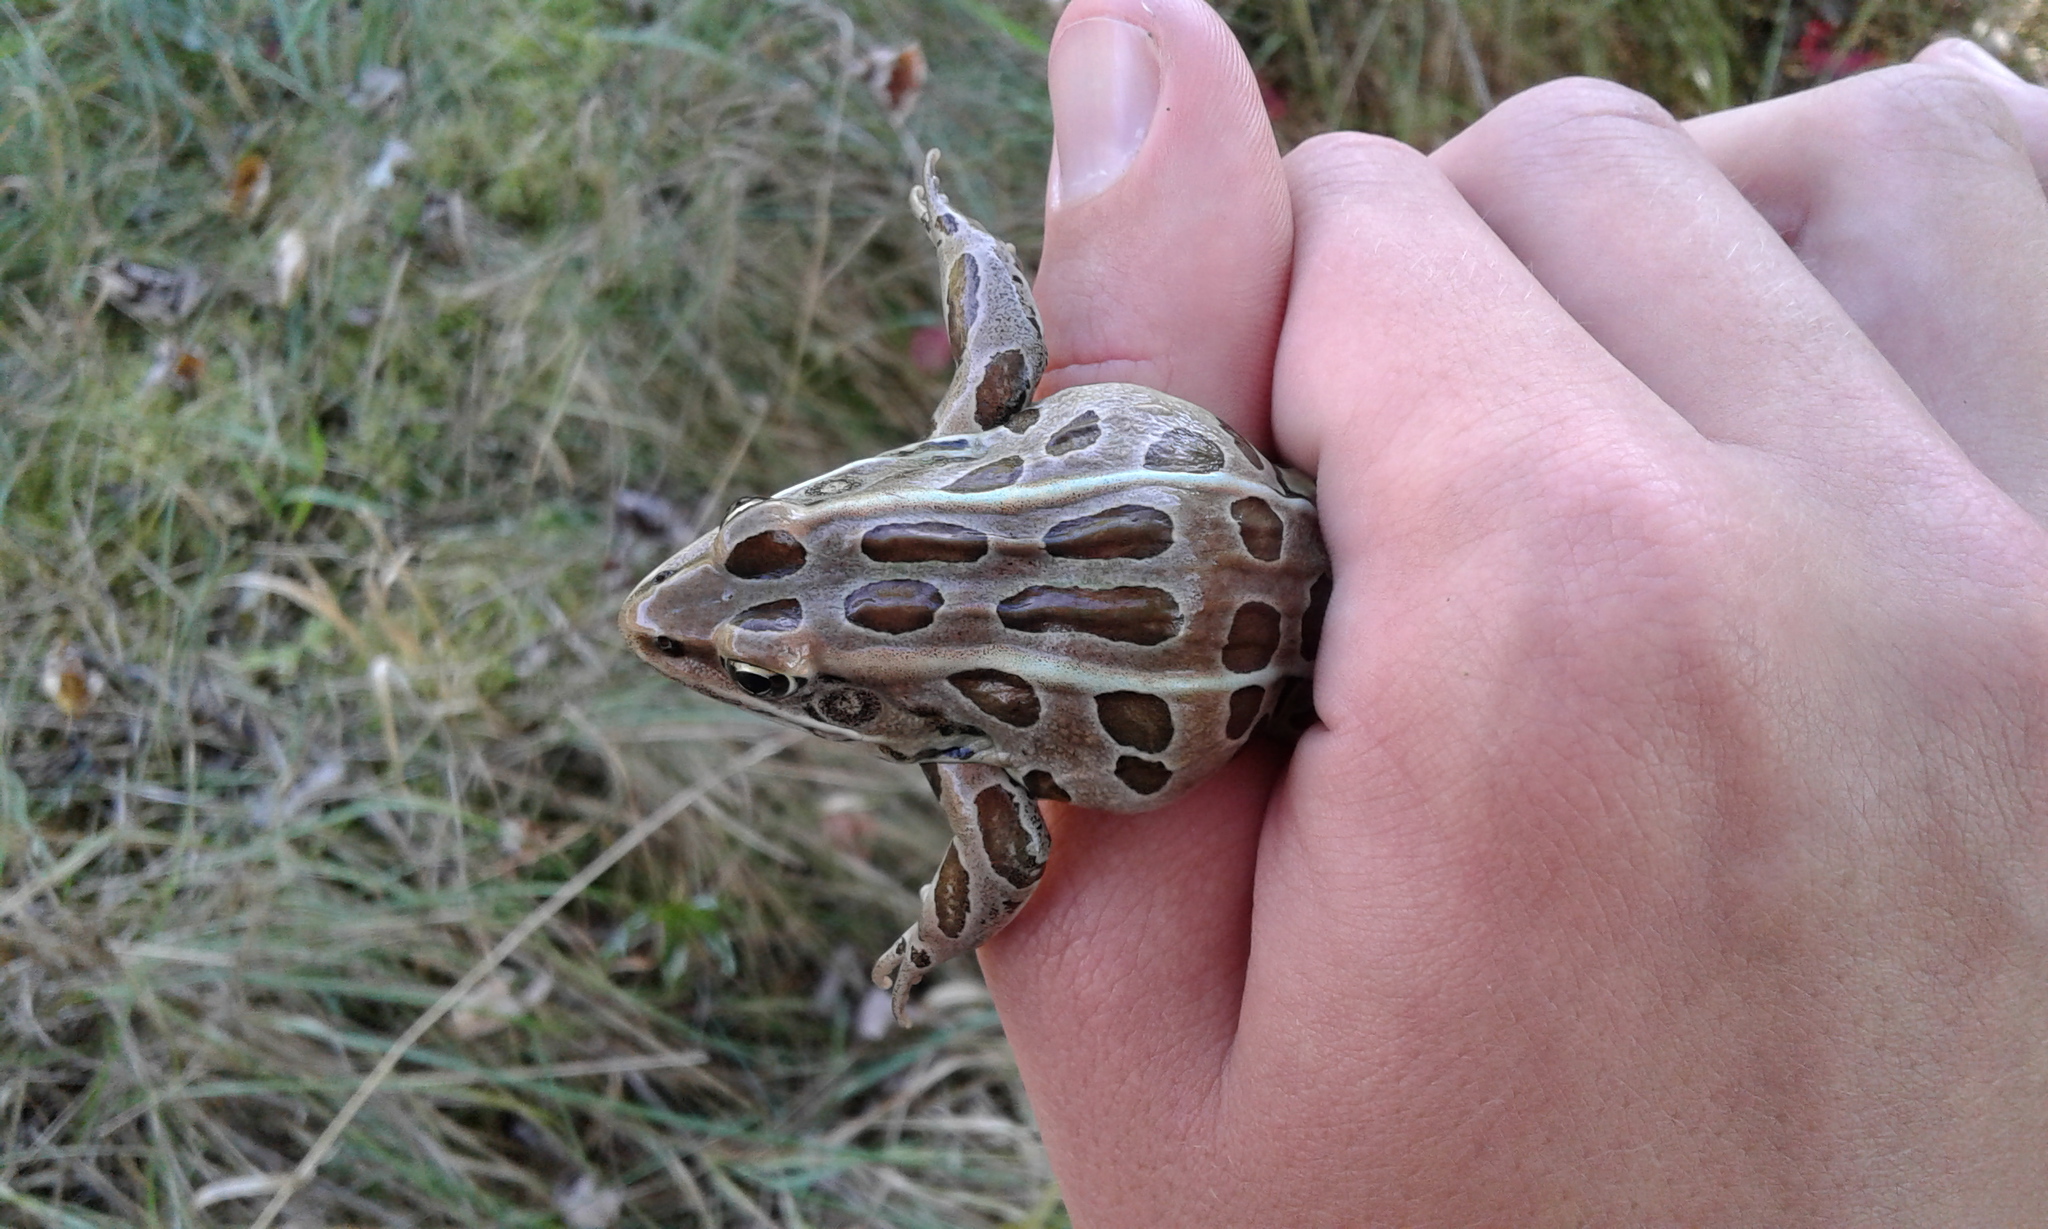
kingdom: Animalia
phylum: Chordata
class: Amphibia
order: Anura
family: Ranidae
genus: Lithobates
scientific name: Lithobates pipiens
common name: Northern leopard frog
